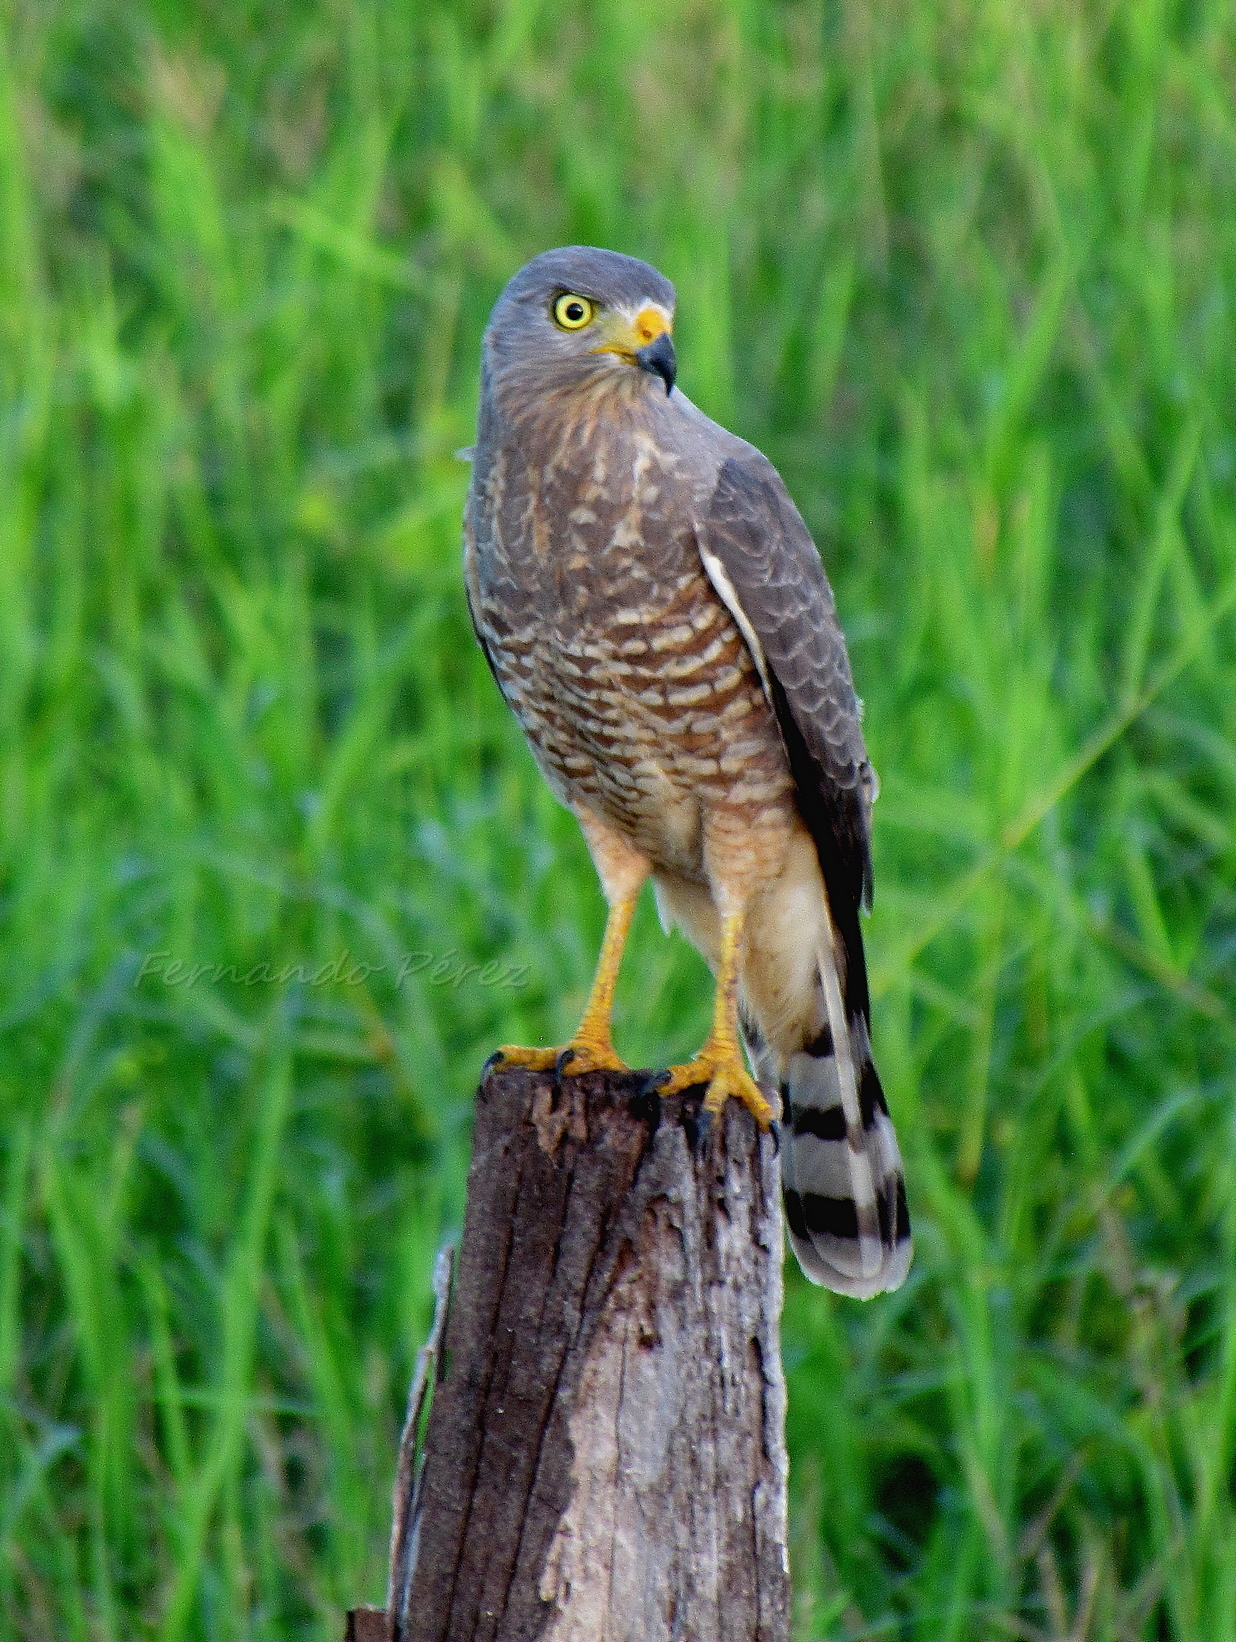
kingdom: Animalia
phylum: Chordata
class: Aves
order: Accipitriformes
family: Accipitridae
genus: Rupornis
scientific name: Rupornis magnirostris
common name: Roadside hawk
